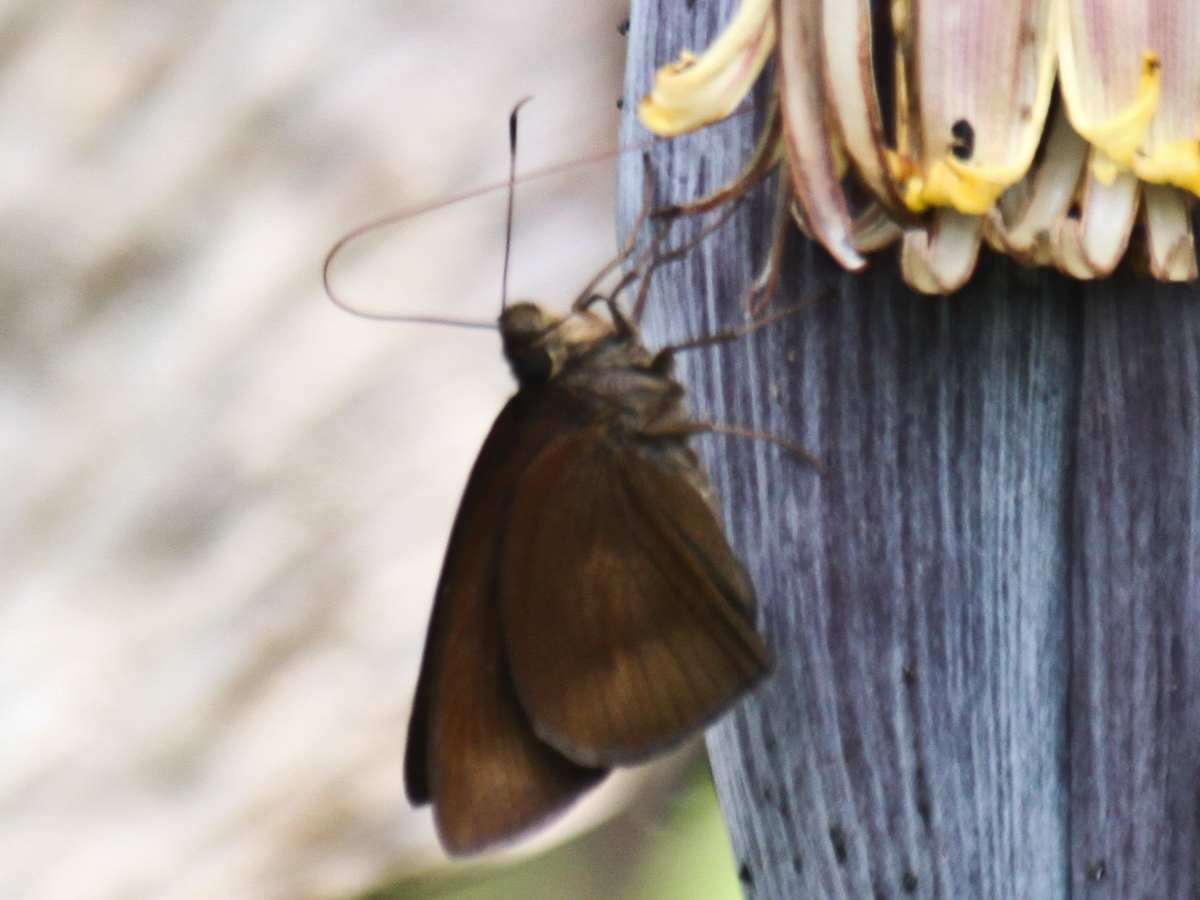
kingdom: Animalia
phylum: Arthropoda
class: Insecta
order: Lepidoptera
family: Hesperiidae
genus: Ancistroides
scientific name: Ancistroides nigrita
